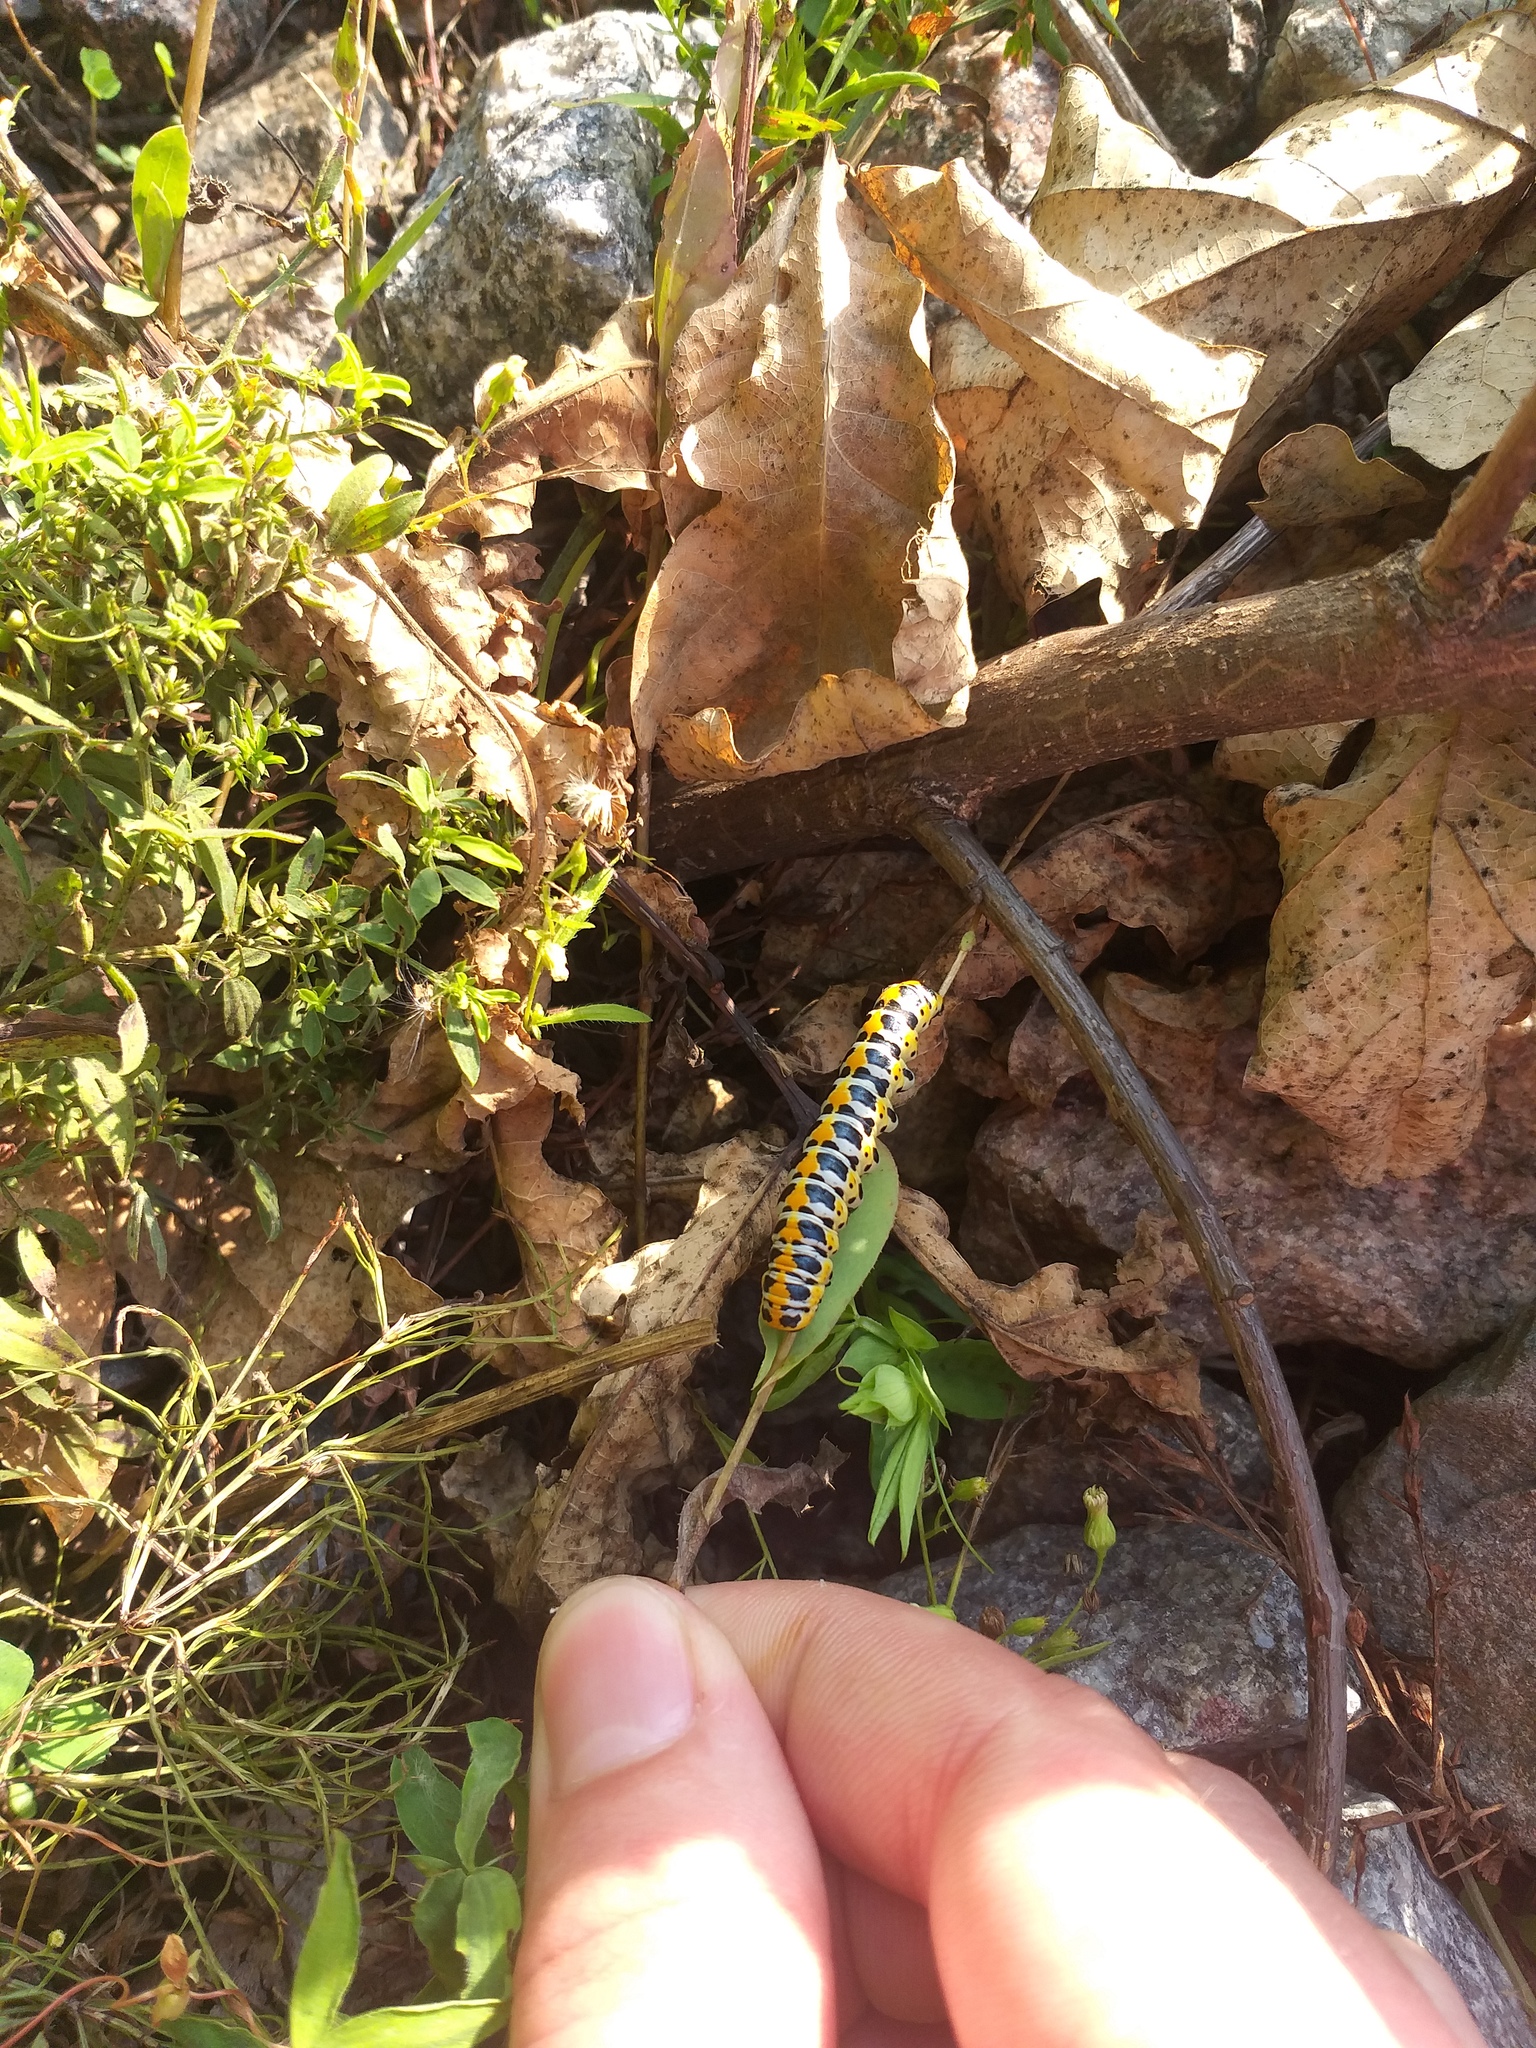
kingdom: Animalia
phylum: Arthropoda
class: Insecta
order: Lepidoptera
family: Noctuidae
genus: Cucullia
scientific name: Cucullia pustulata
